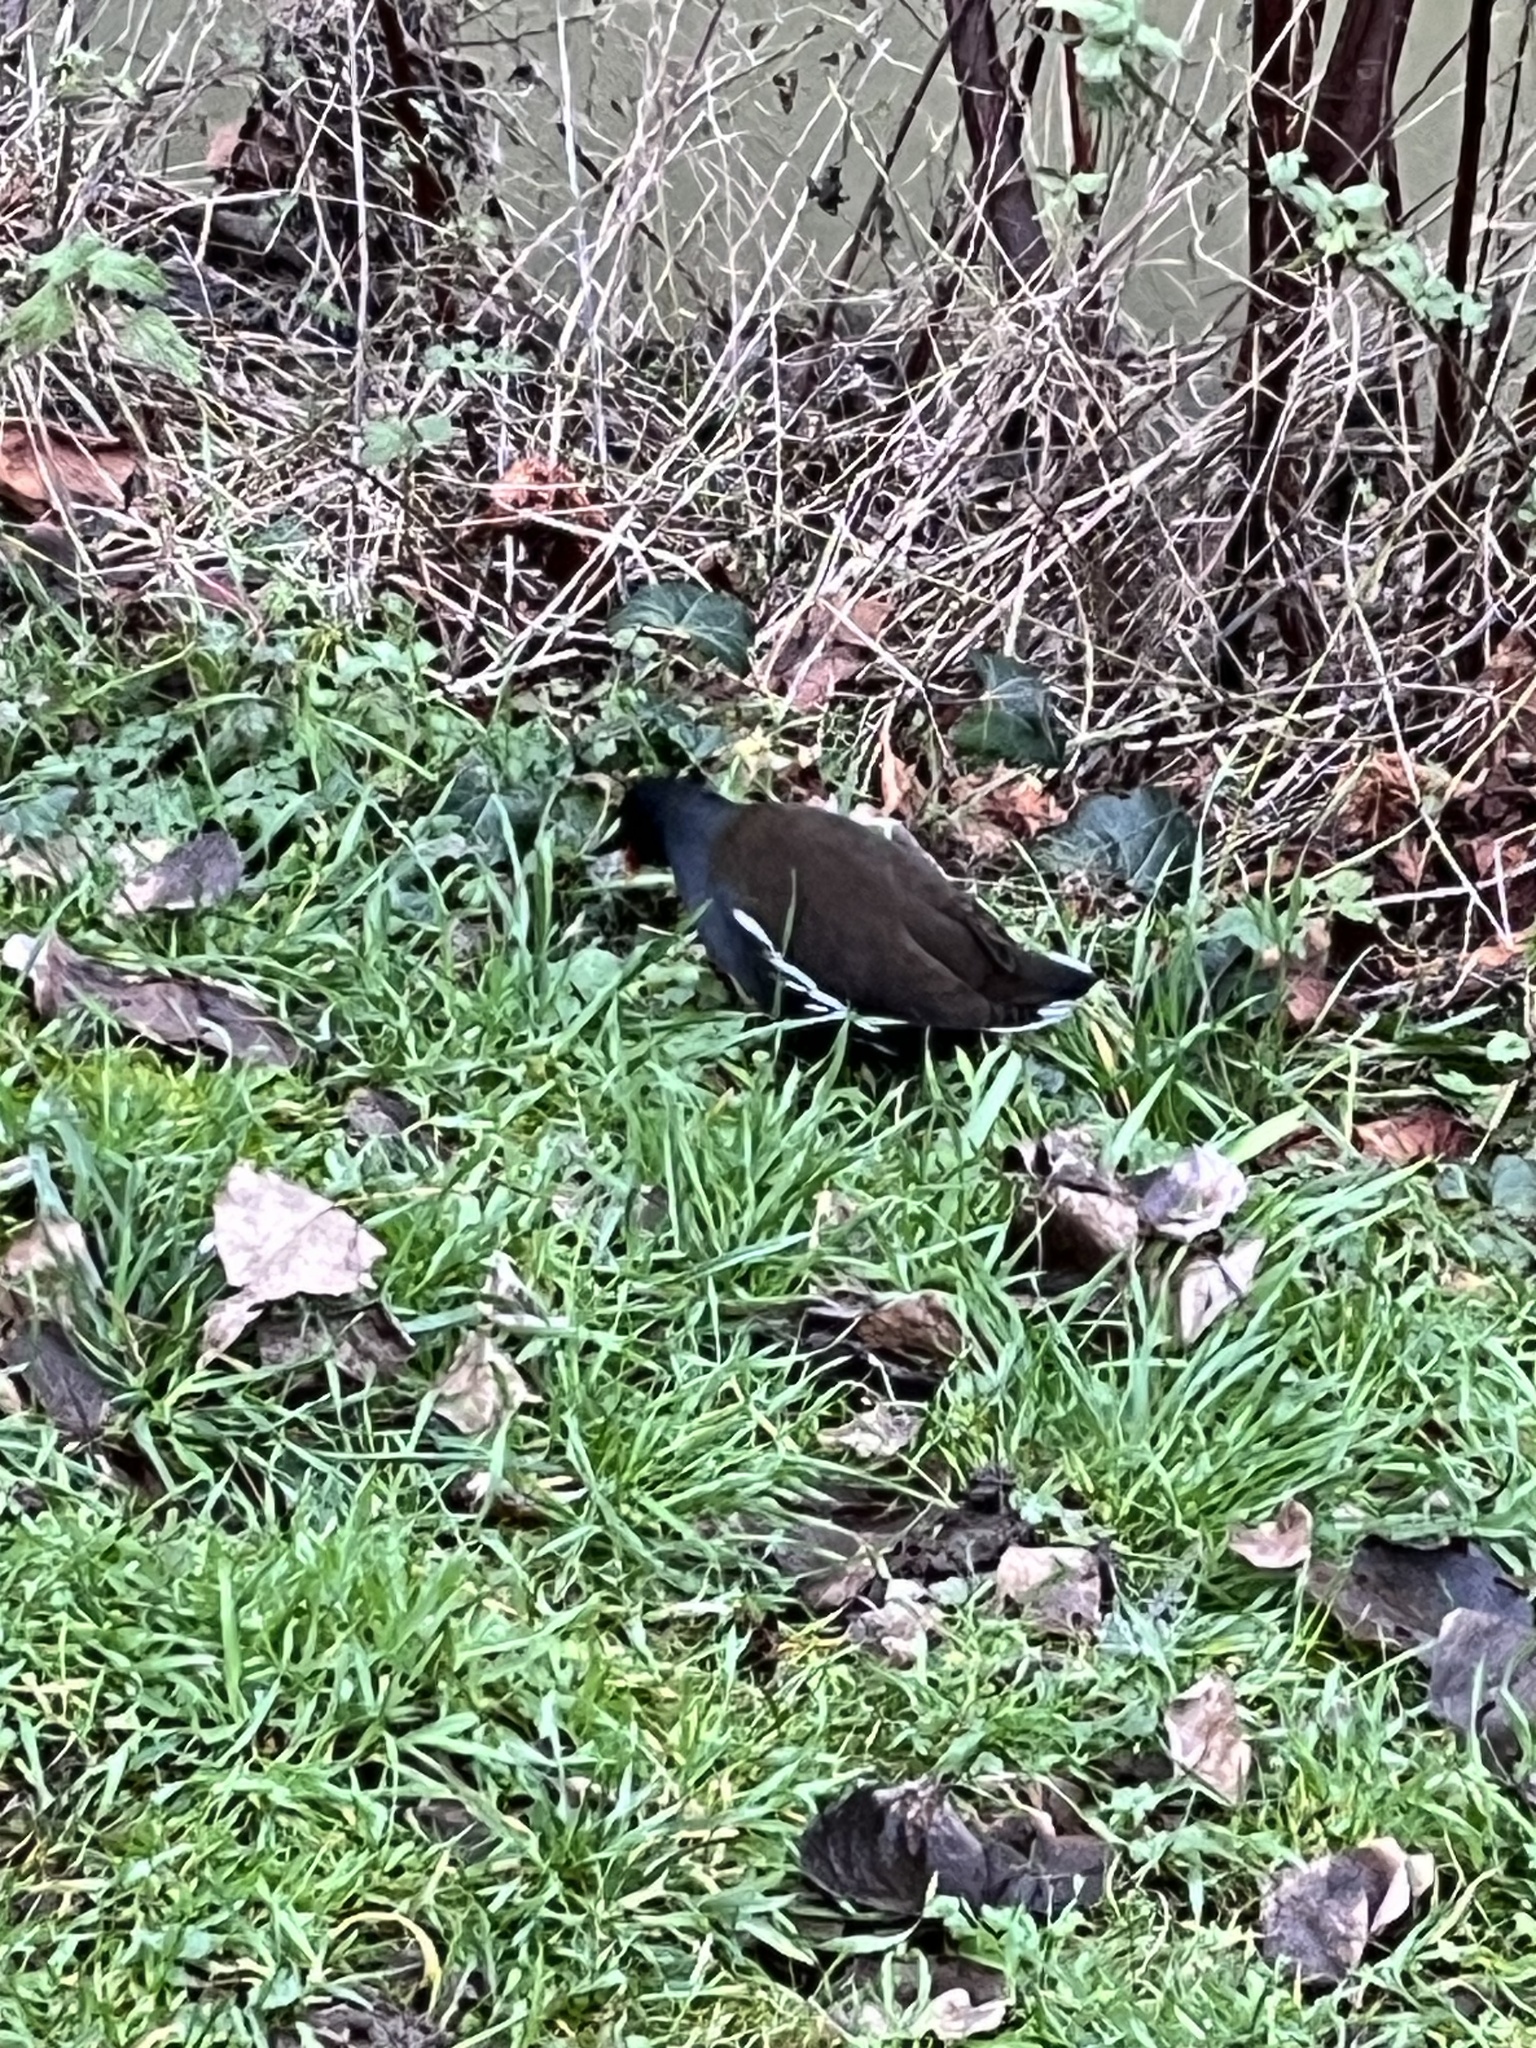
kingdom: Animalia
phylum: Chordata
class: Aves
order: Gruiformes
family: Rallidae
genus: Gallinula
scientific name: Gallinula chloropus
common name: Common moorhen
